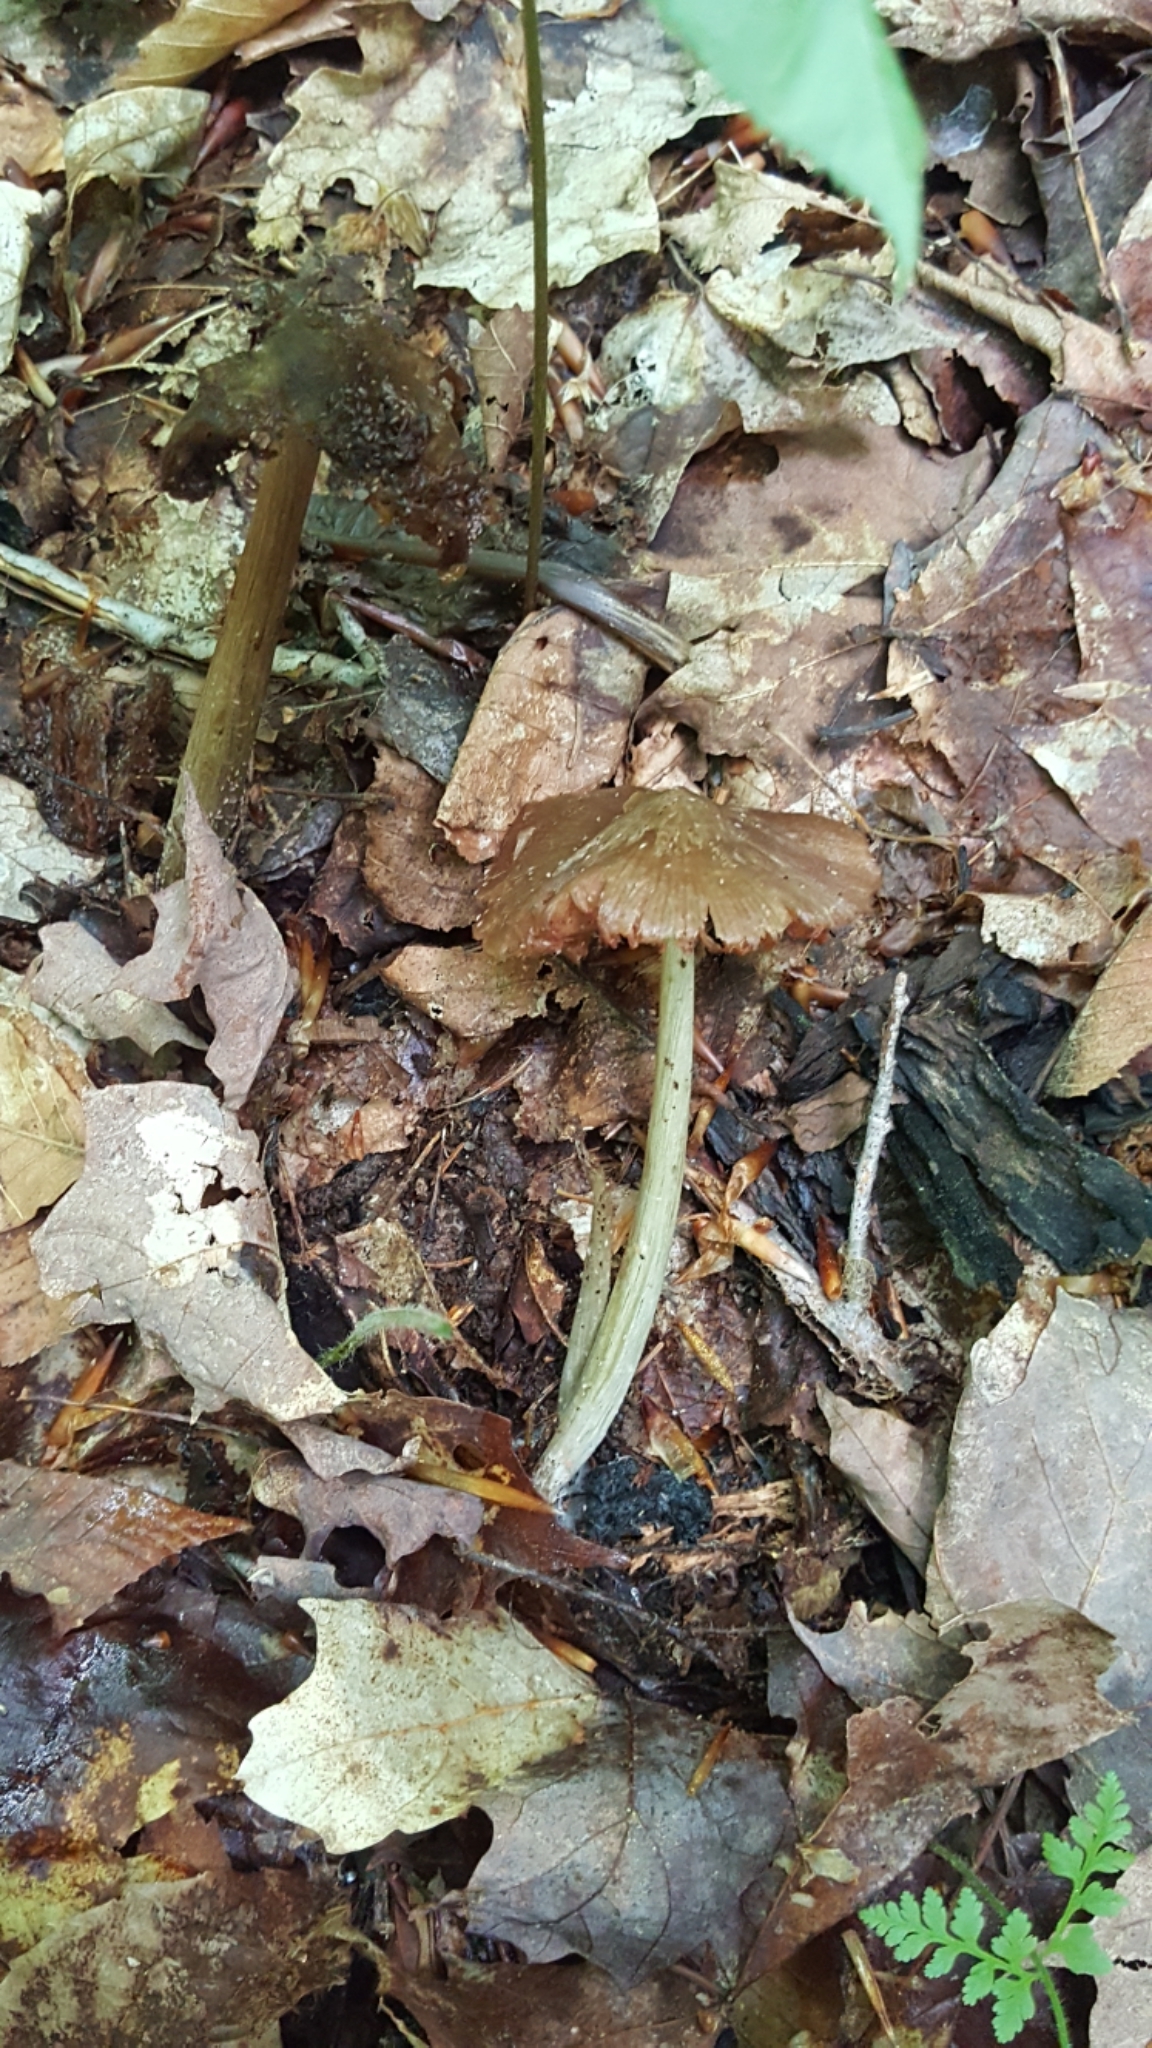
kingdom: Fungi
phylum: Basidiomycota
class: Agaricomycetes
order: Agaricales
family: Entolomataceae
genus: Entoloma
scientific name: Entoloma strictius
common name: Straight-stalked entoloma
